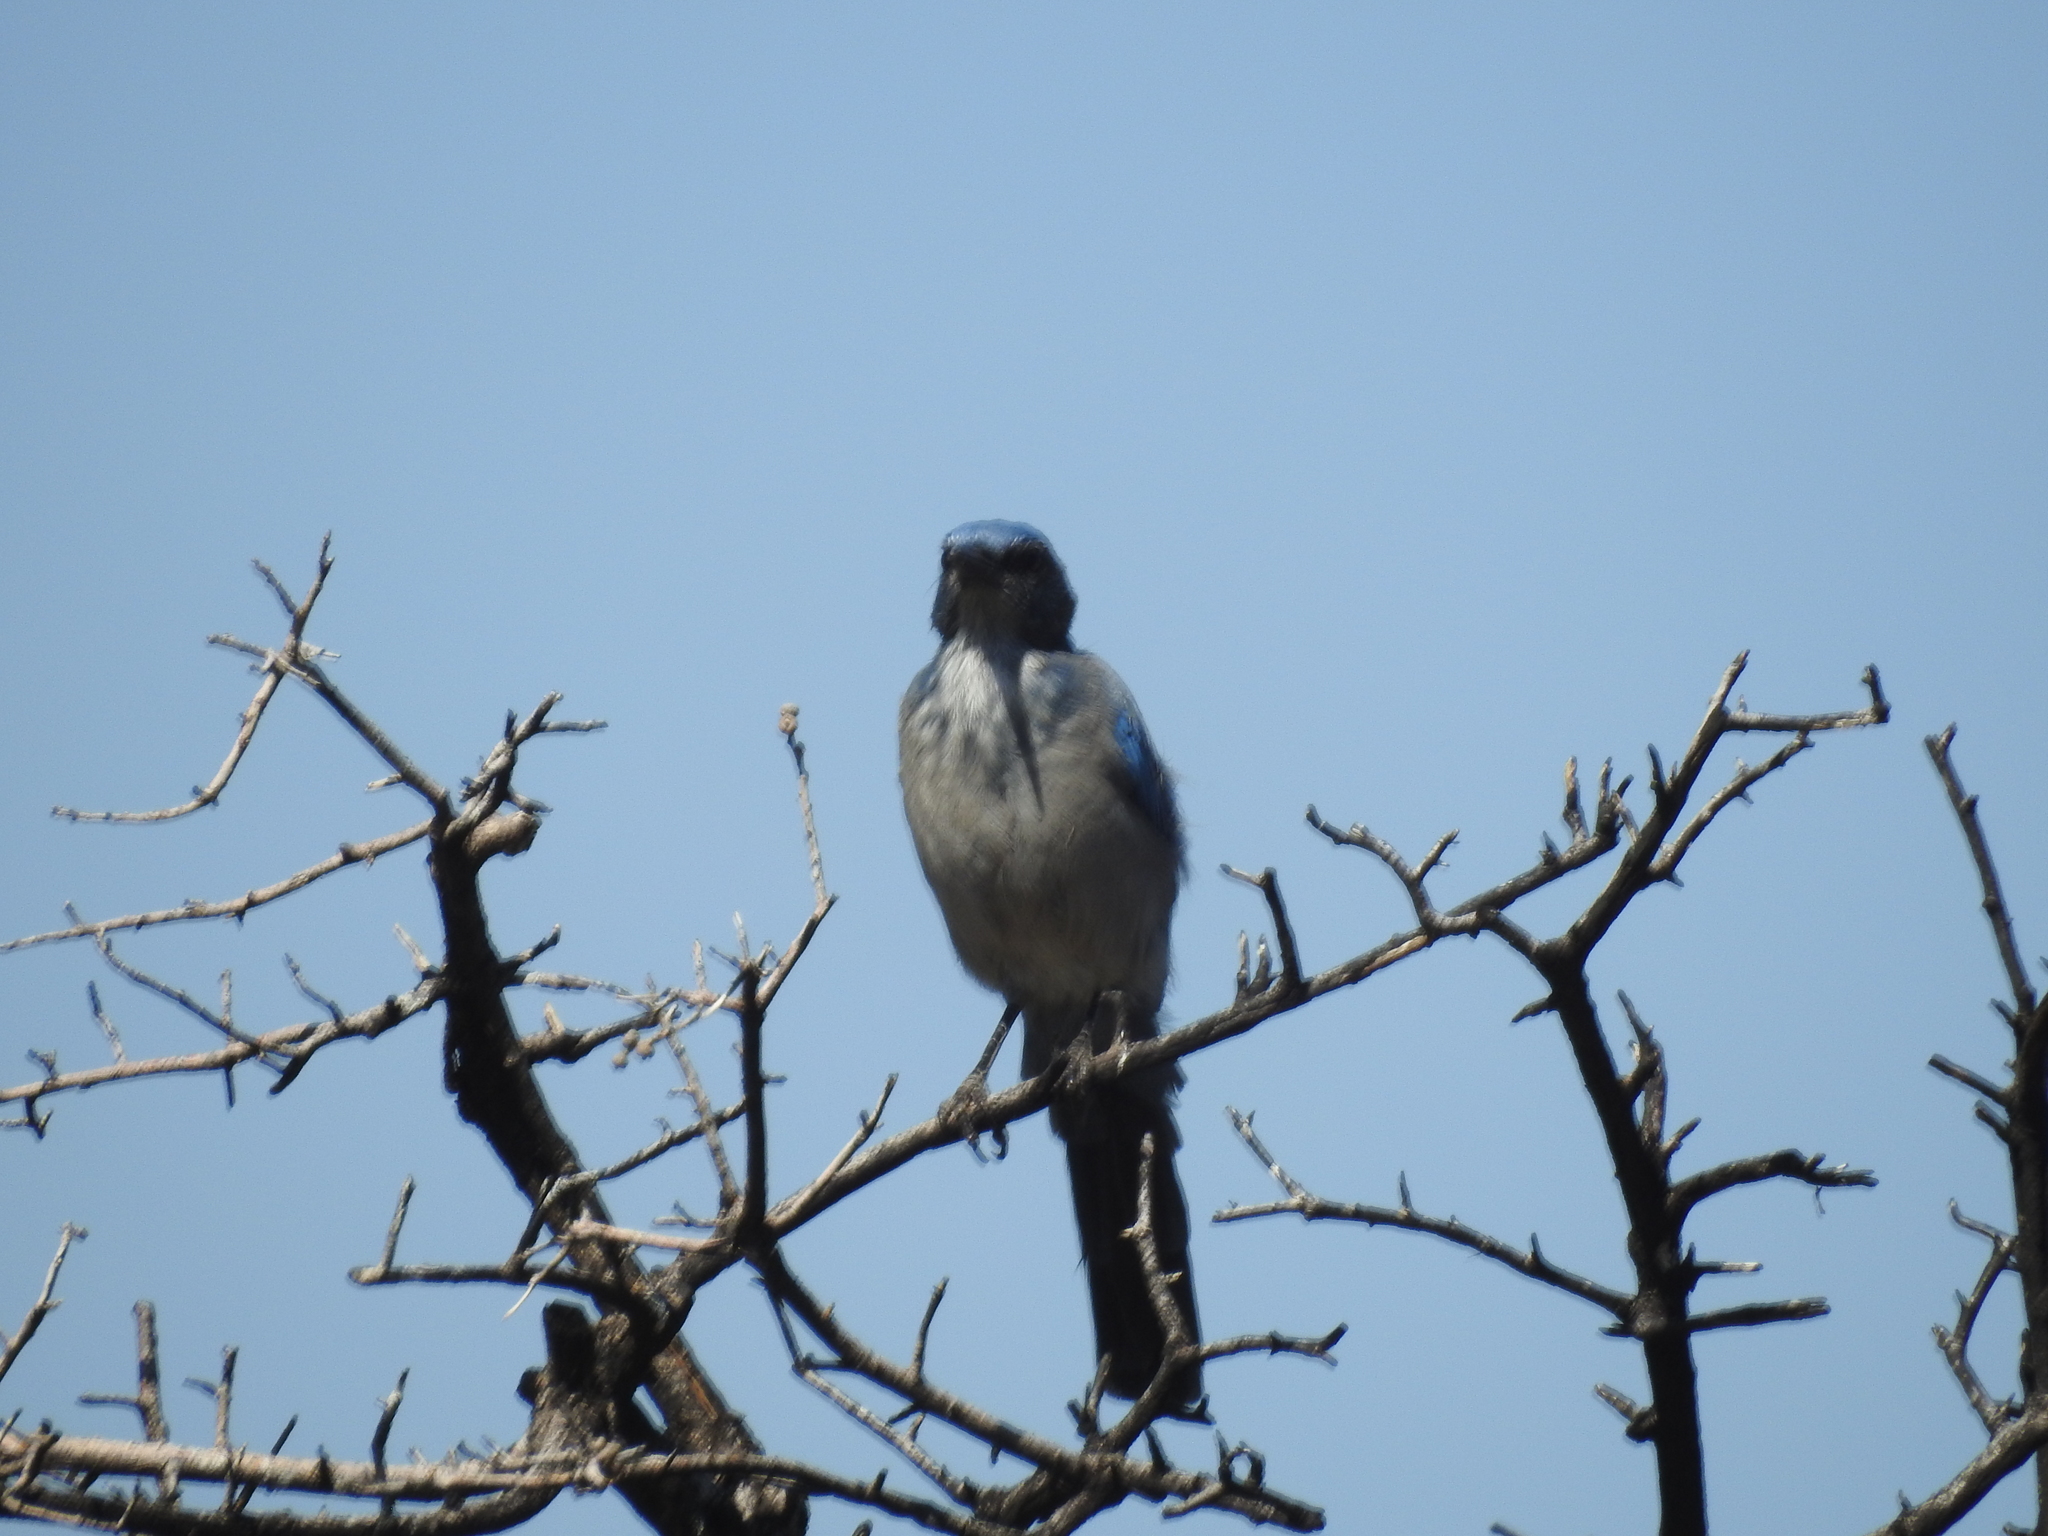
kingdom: Animalia
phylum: Chordata
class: Aves
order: Passeriformes
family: Corvidae
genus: Aphelocoma
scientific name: Aphelocoma woodhouseii
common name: Woodhouse's scrub-jay
